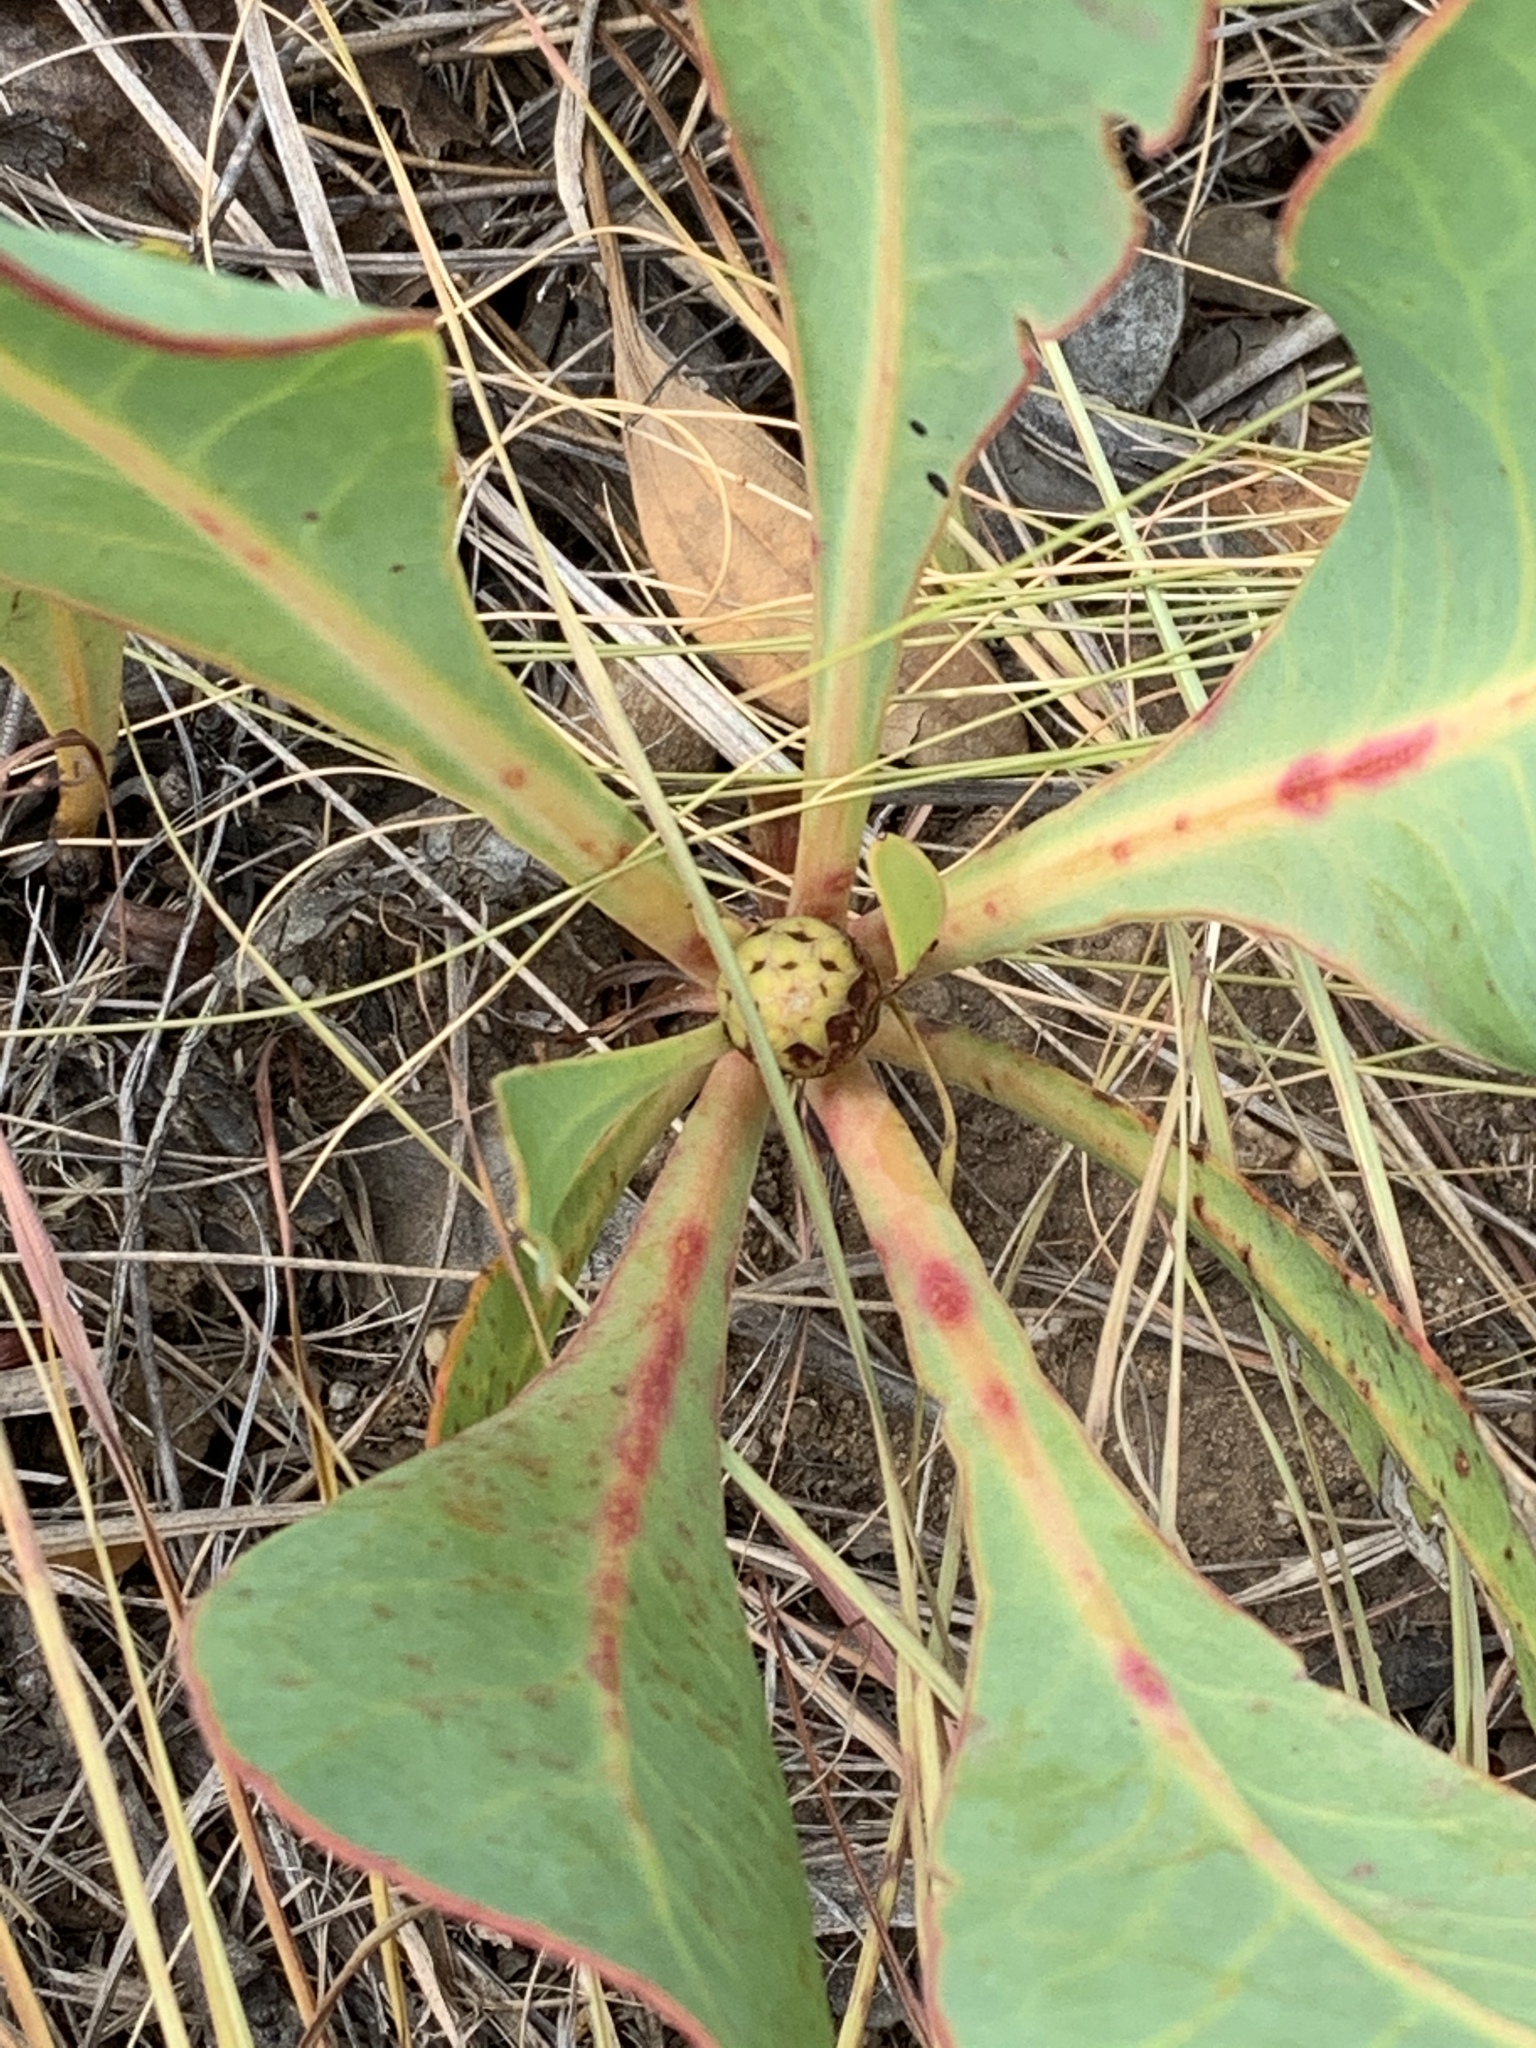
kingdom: Plantae
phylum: Tracheophyta
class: Magnoliopsida
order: Proteales
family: Proteaceae
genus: Protea
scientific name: Protea acaulos
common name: Common ground sugarbush
